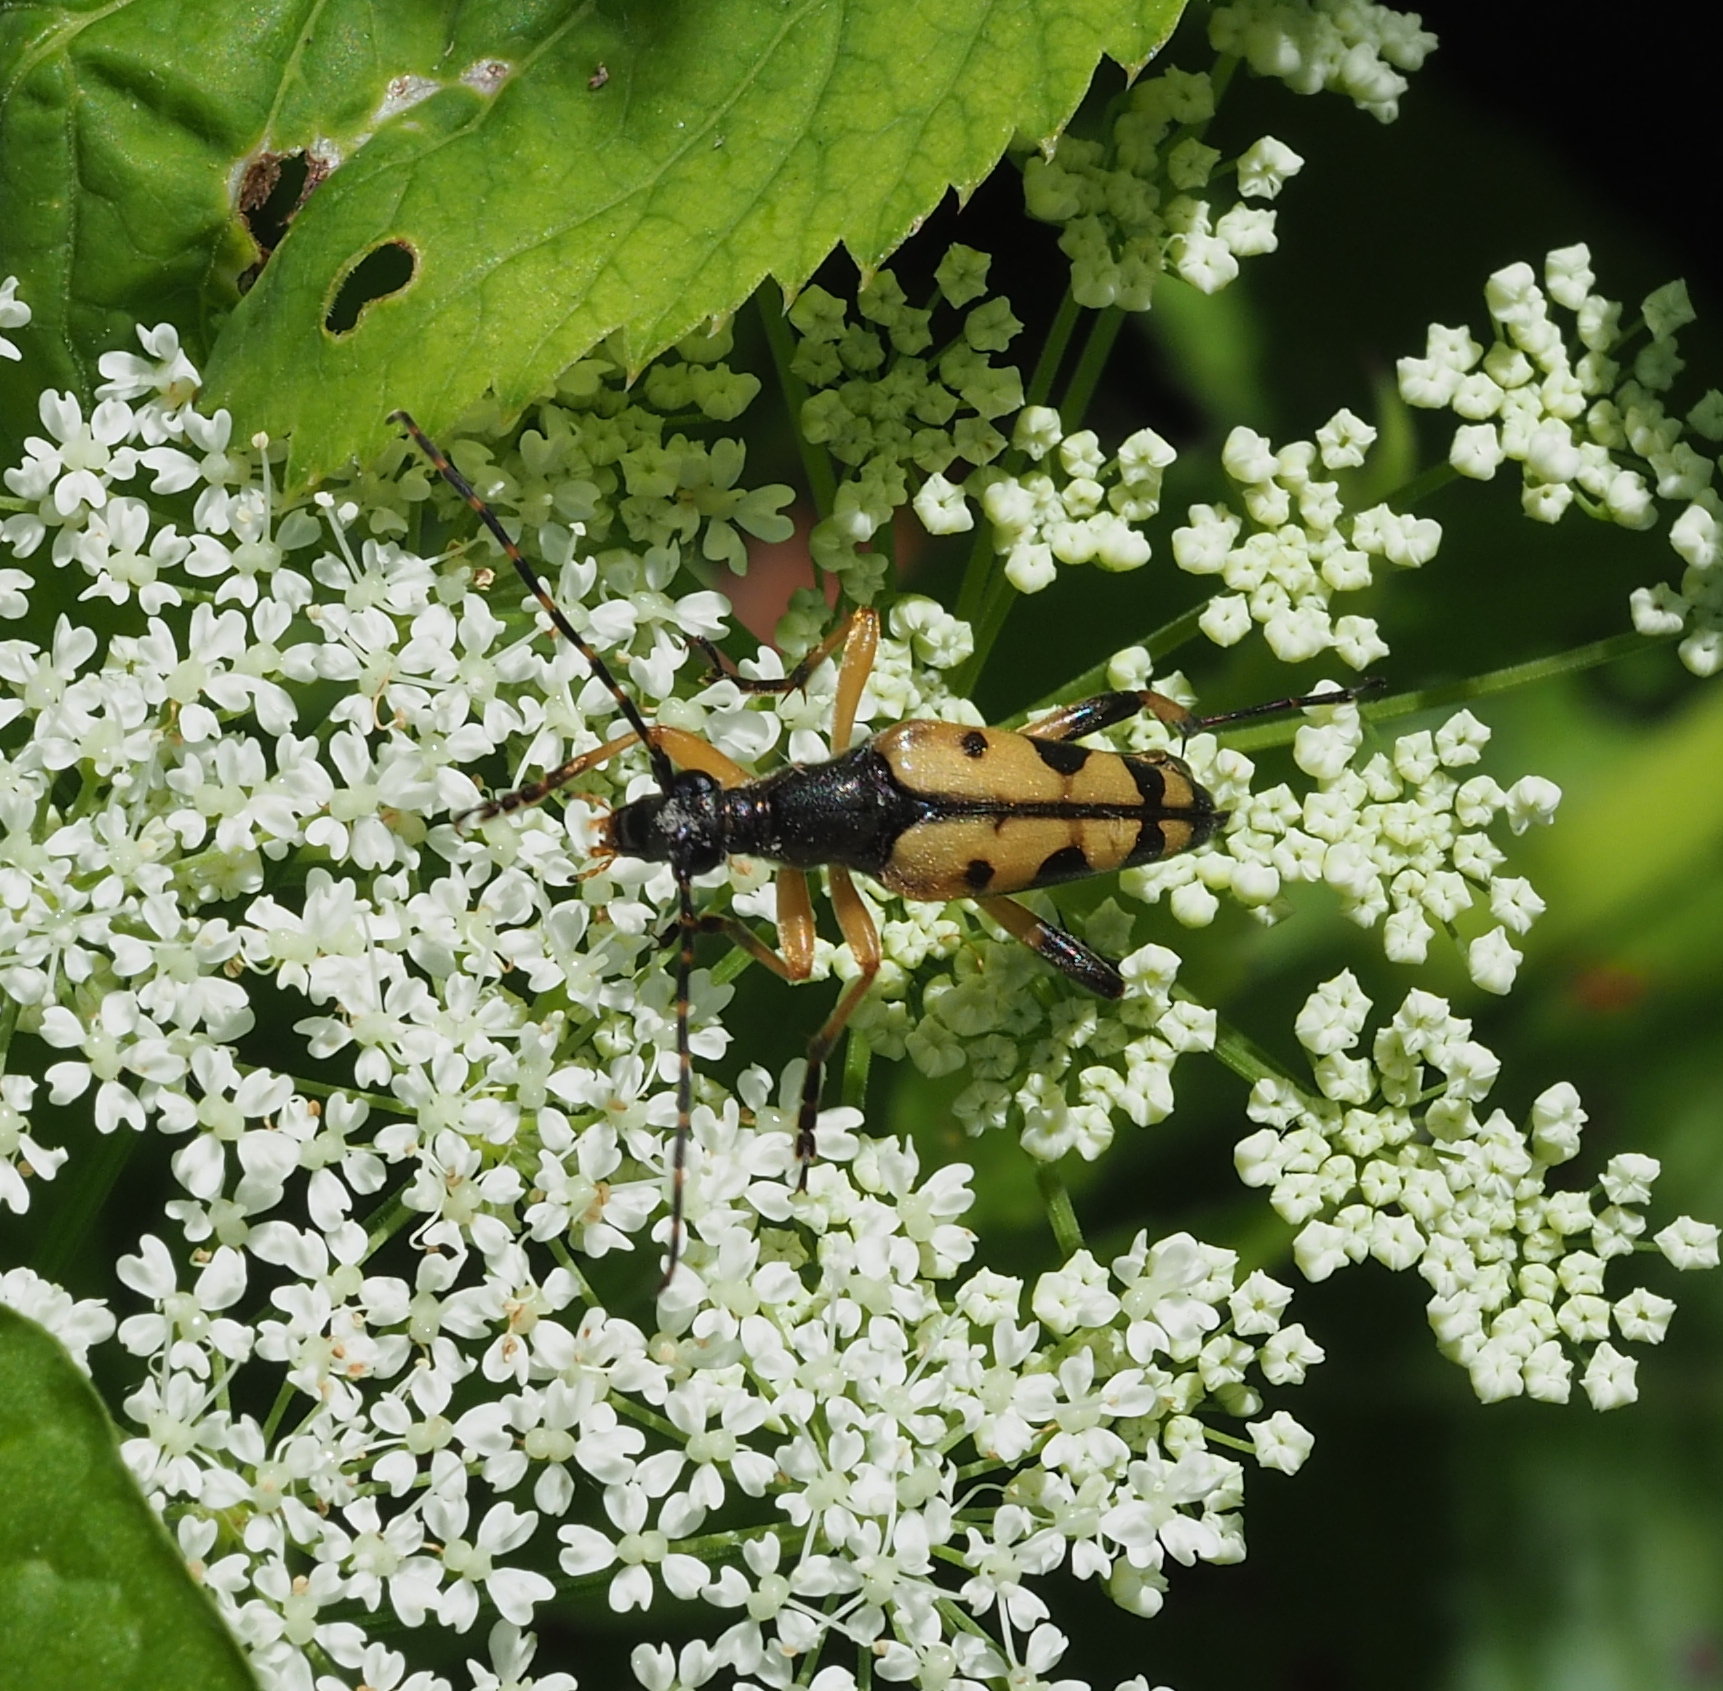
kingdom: Animalia
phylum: Arthropoda
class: Insecta
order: Coleoptera
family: Cerambycidae
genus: Rutpela
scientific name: Rutpela maculata
